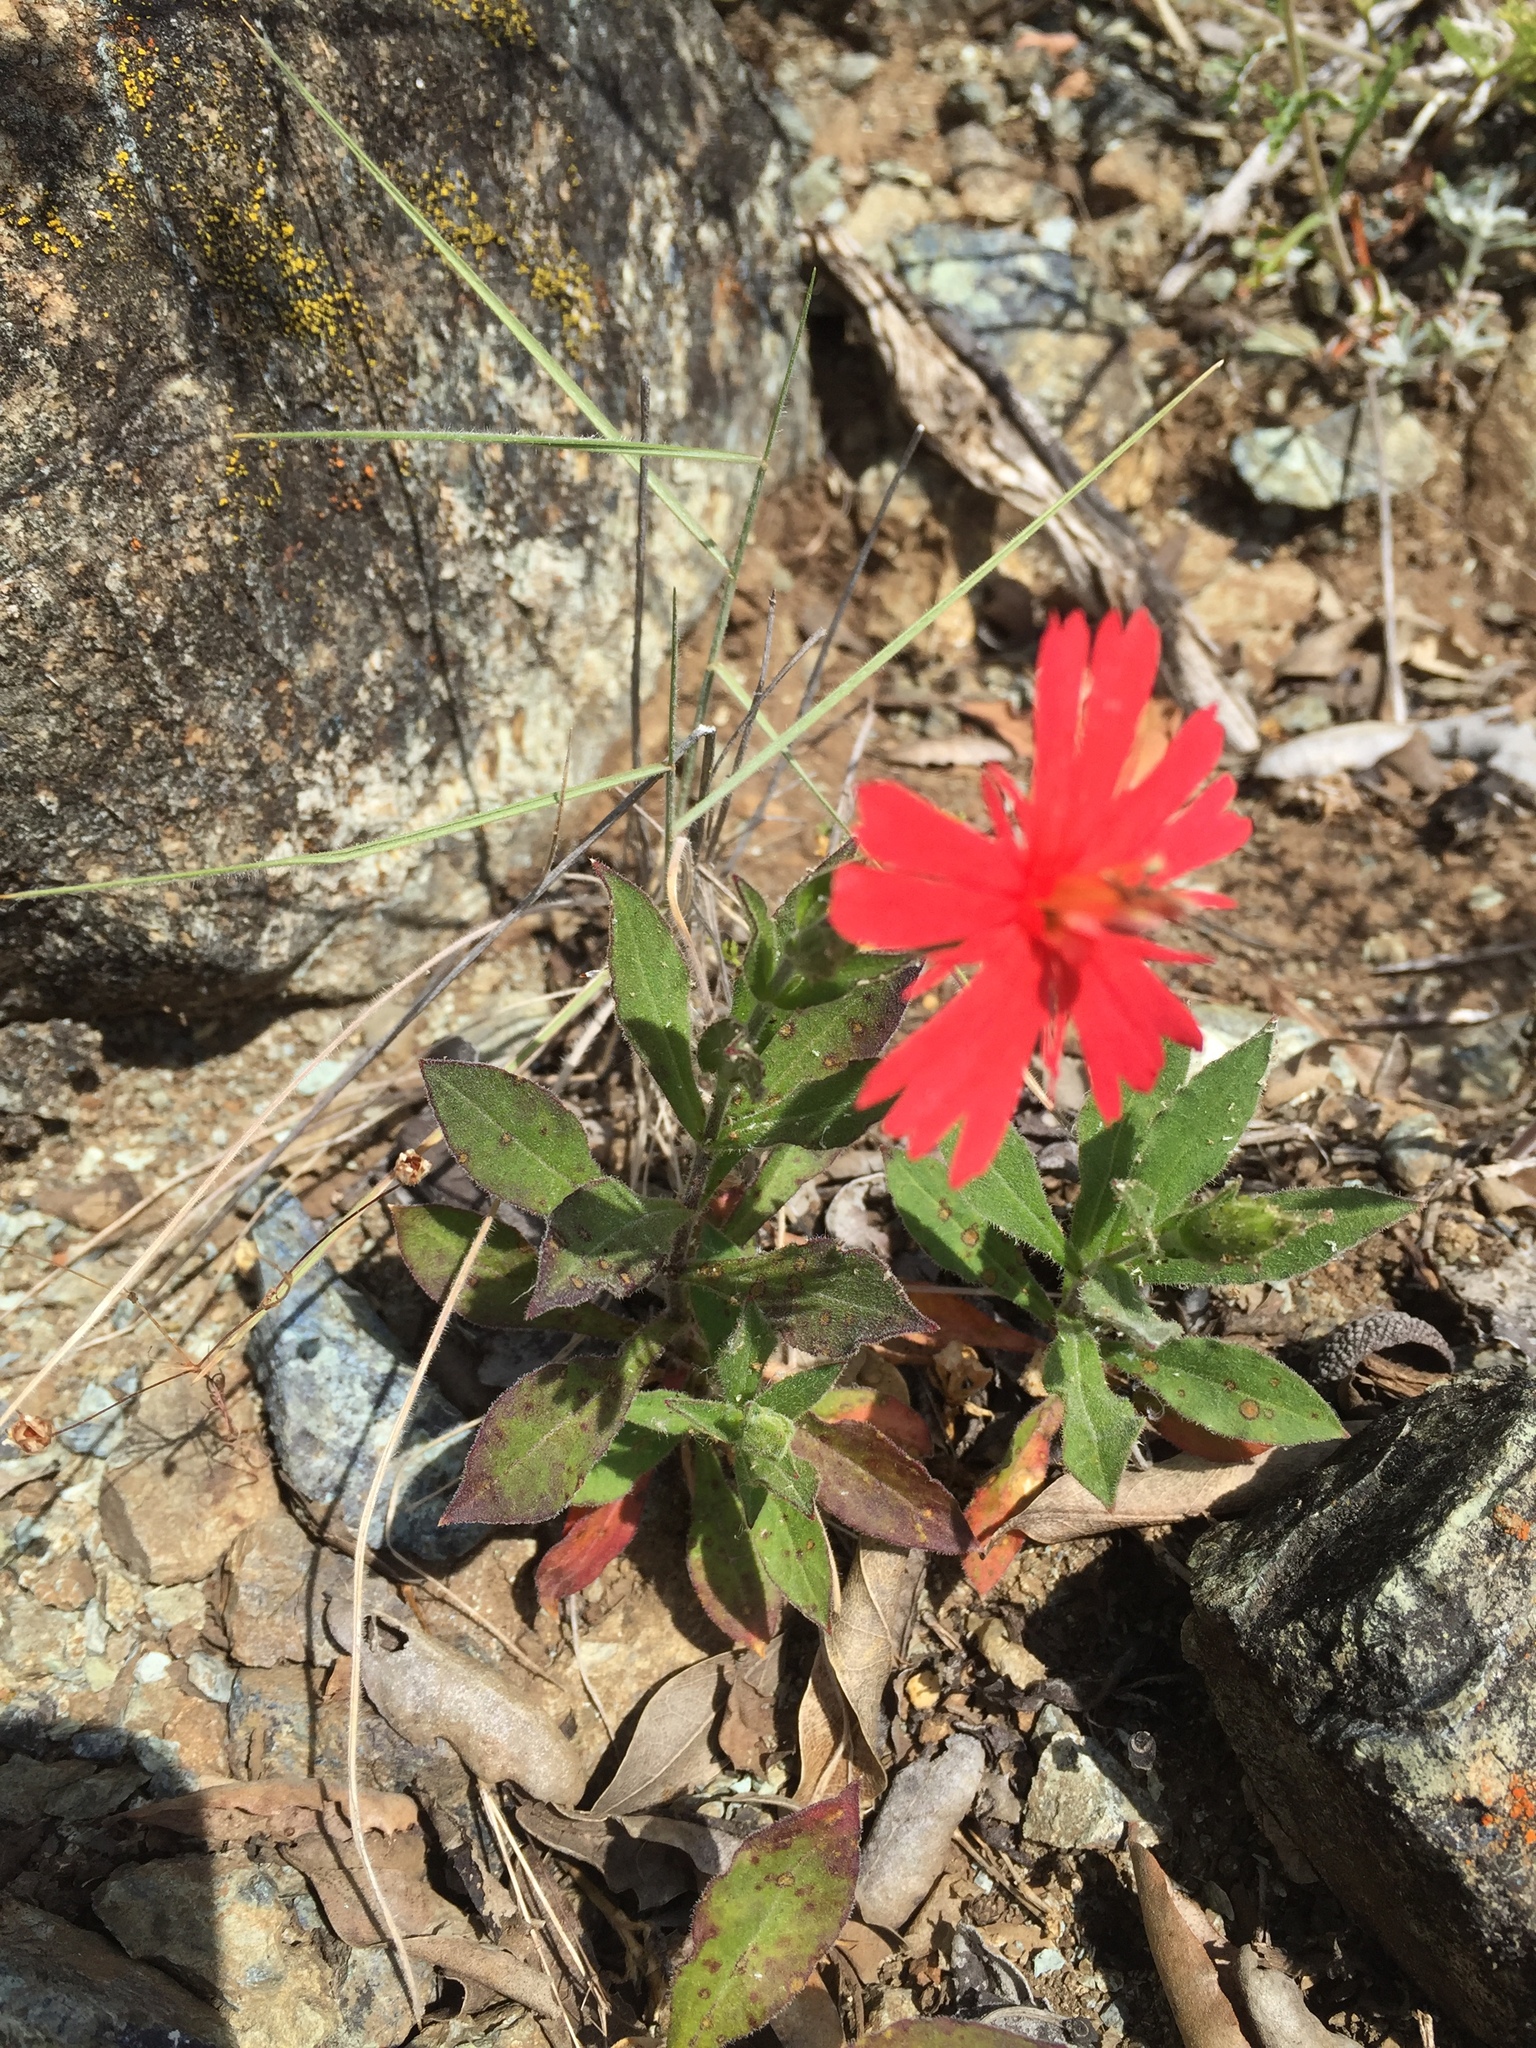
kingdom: Plantae
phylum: Tracheophyta
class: Magnoliopsida
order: Caryophyllales
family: Caryophyllaceae
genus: Silene
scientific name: Silene laciniata
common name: Indian-pink
